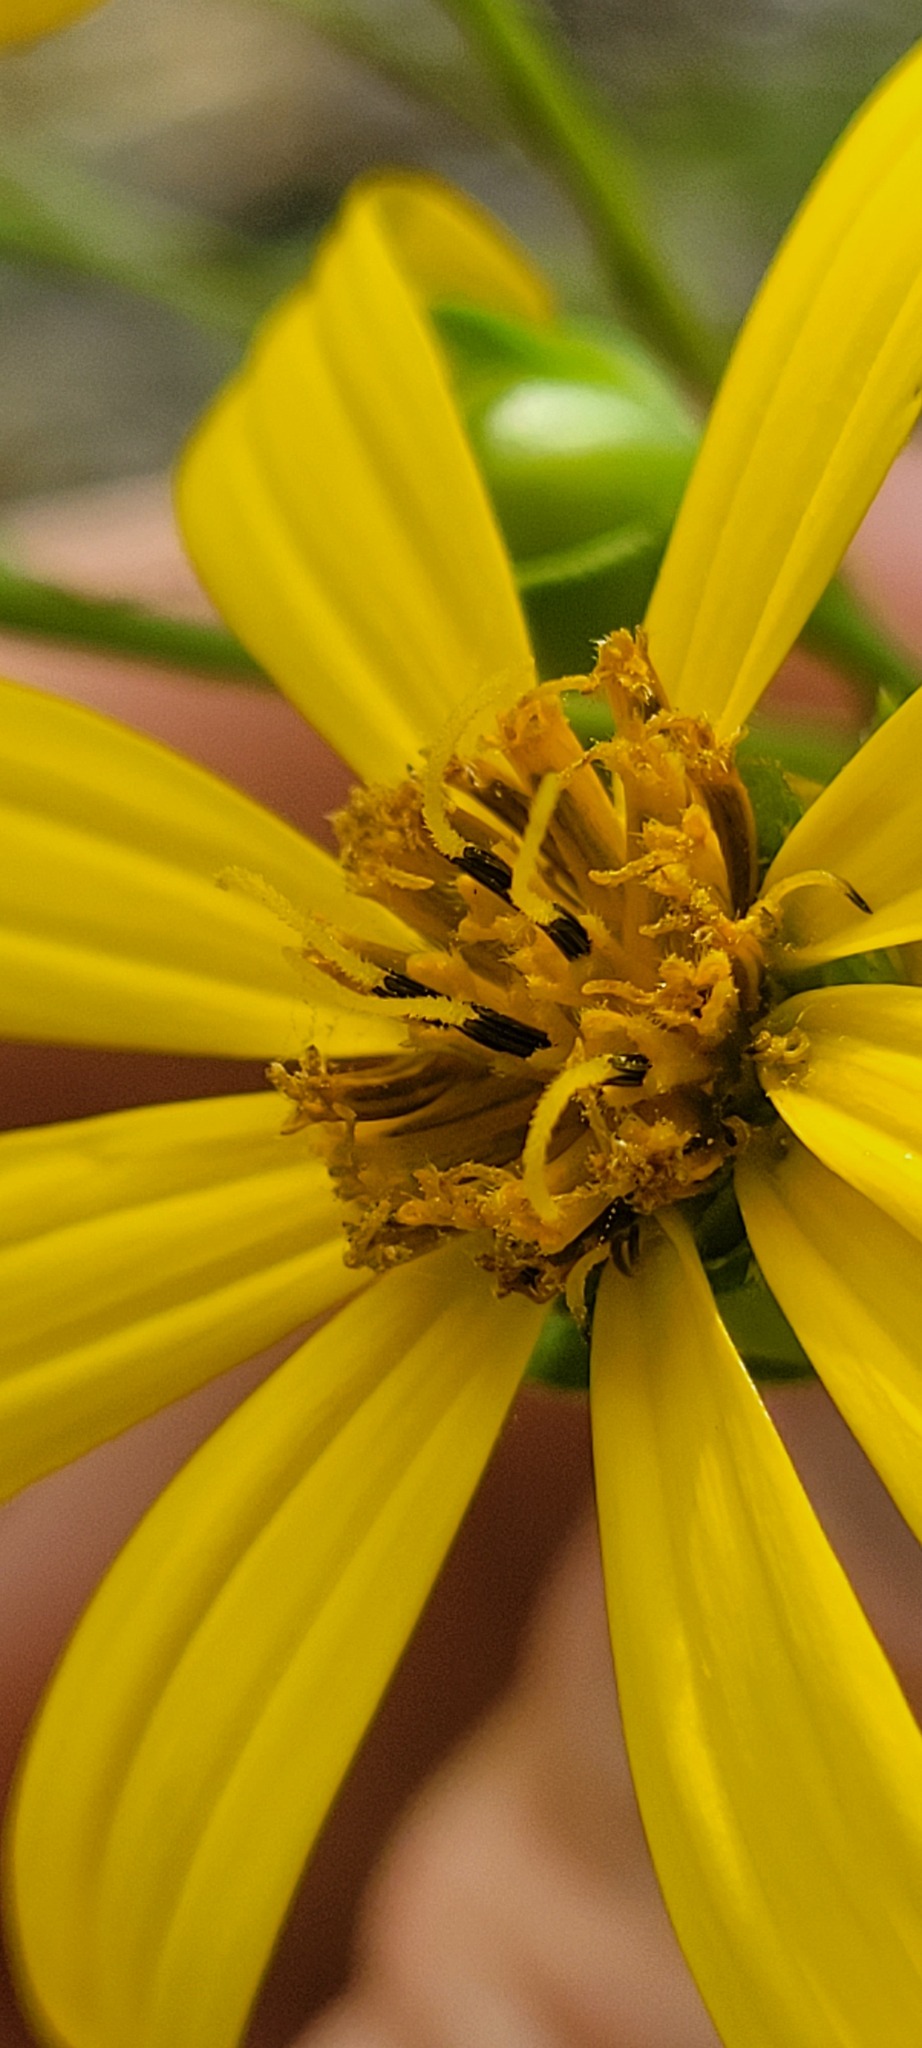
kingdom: Plantae
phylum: Tracheophyta
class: Magnoliopsida
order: Asterales
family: Asteraceae
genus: Silphium
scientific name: Silphium asteriscus
